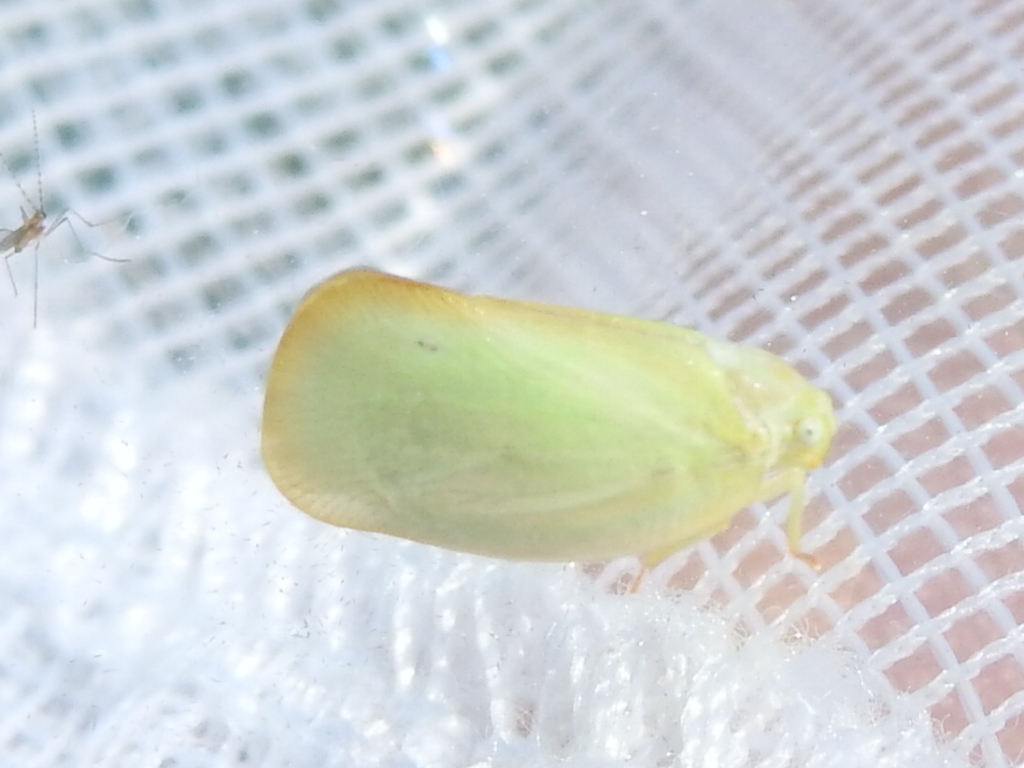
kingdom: Animalia
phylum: Arthropoda
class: Insecta
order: Hemiptera
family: Flatidae
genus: Ormenoides
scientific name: Ormenoides venusta
